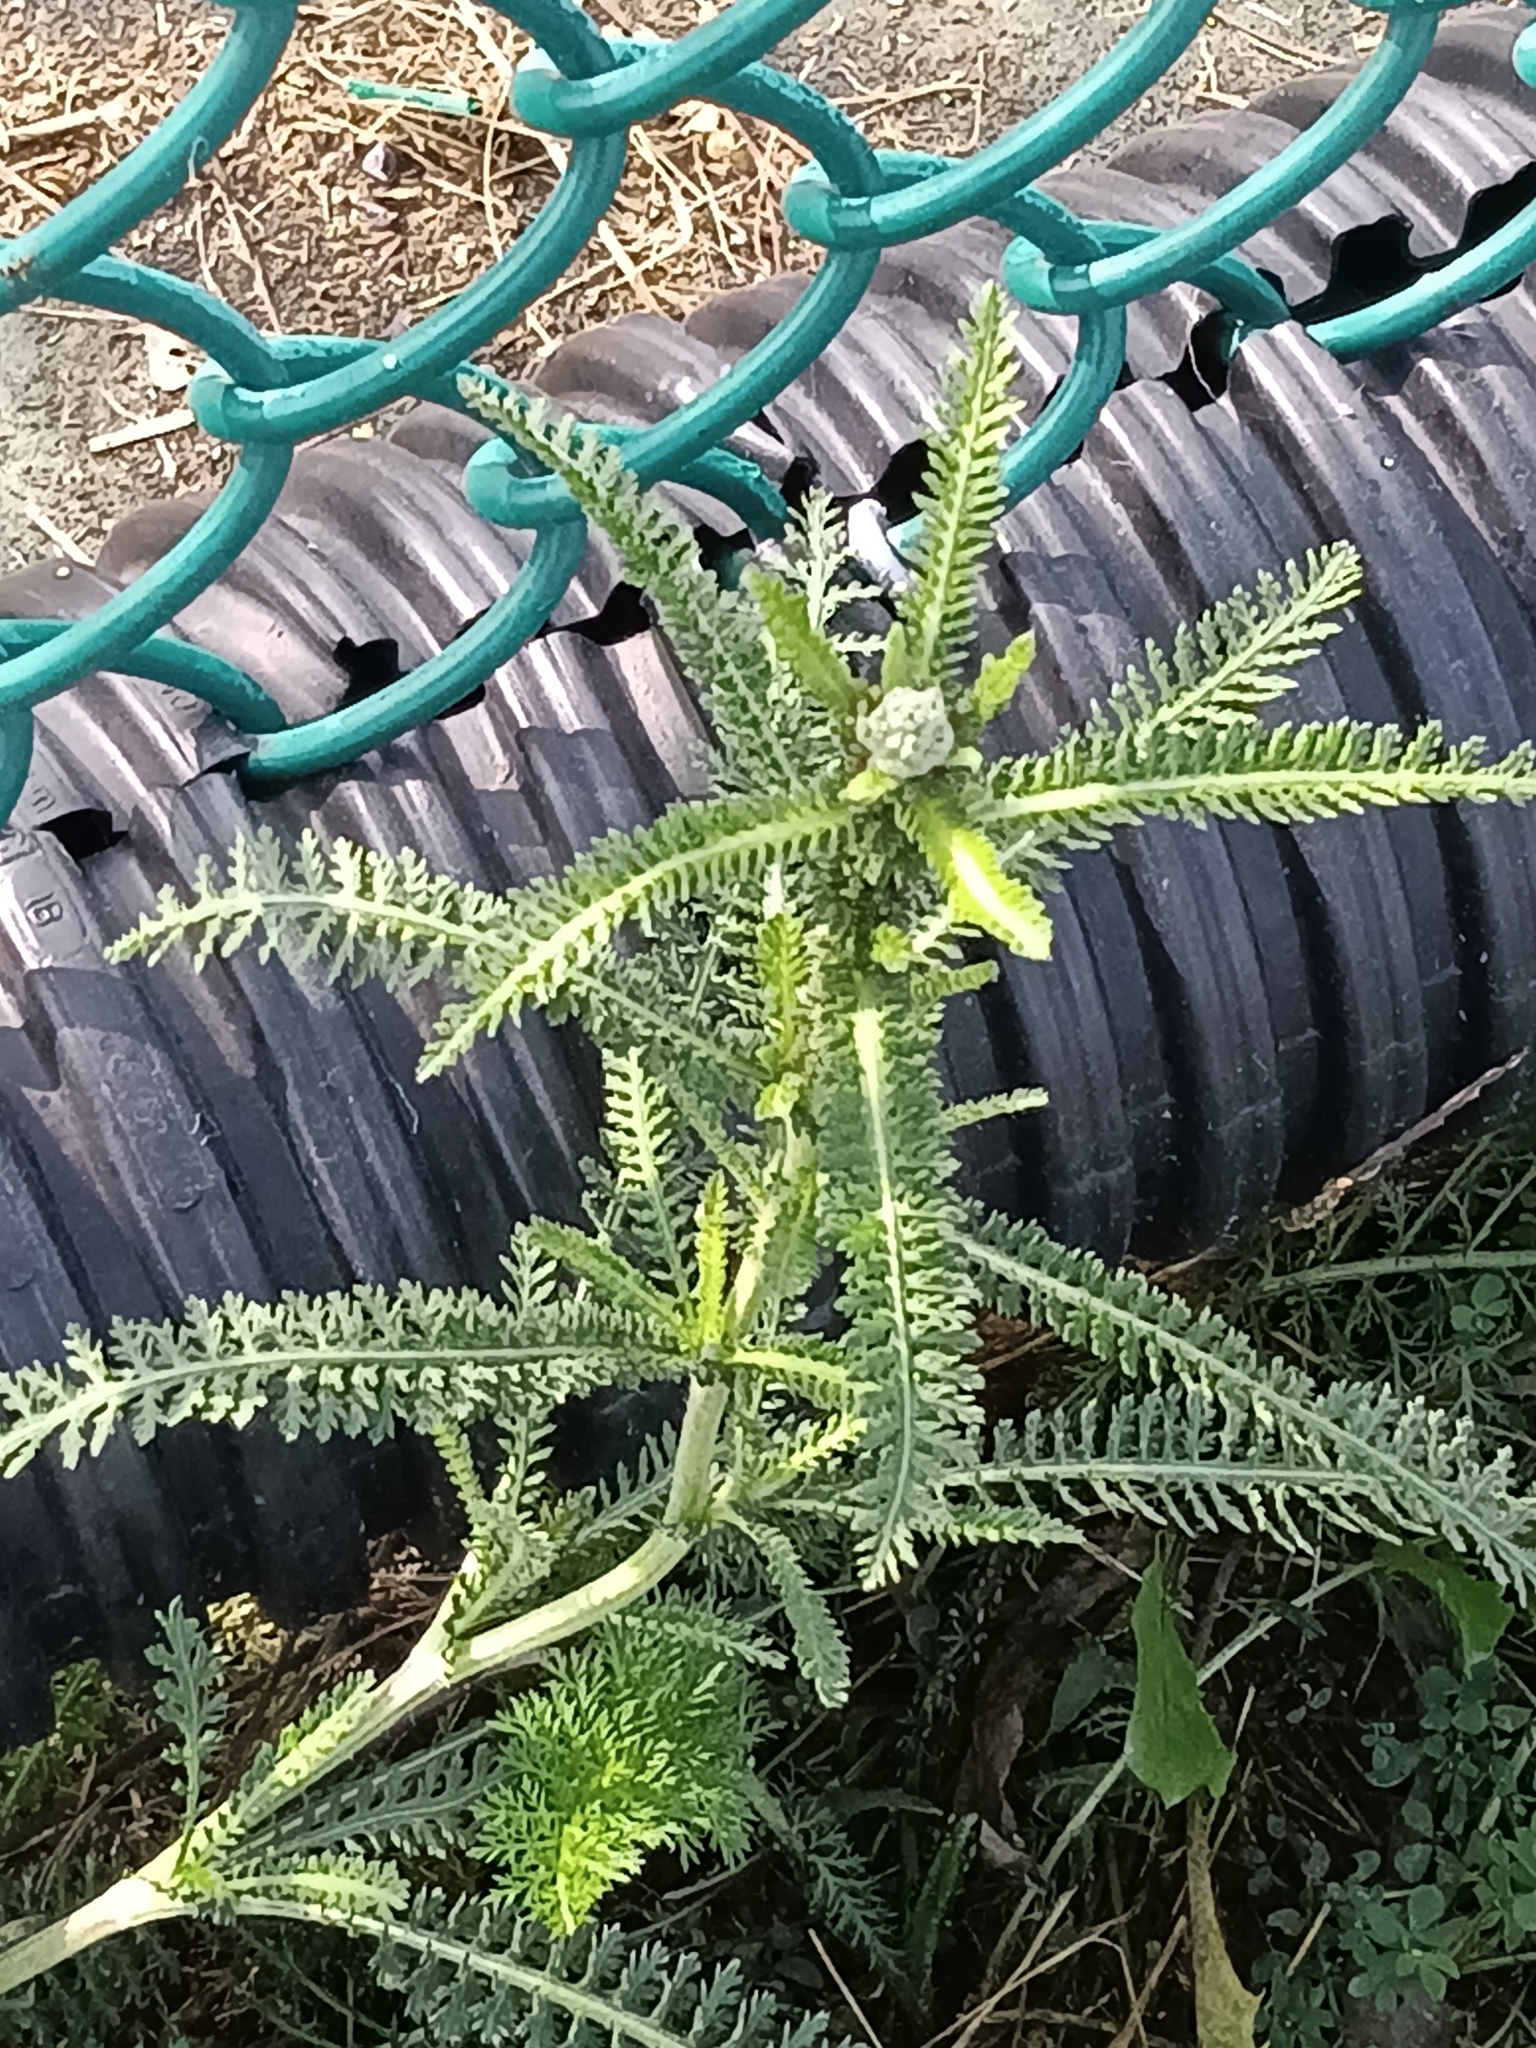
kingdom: Plantae
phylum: Tracheophyta
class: Magnoliopsida
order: Asterales
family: Asteraceae
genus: Achillea
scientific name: Achillea millefolium
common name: Yarrow
